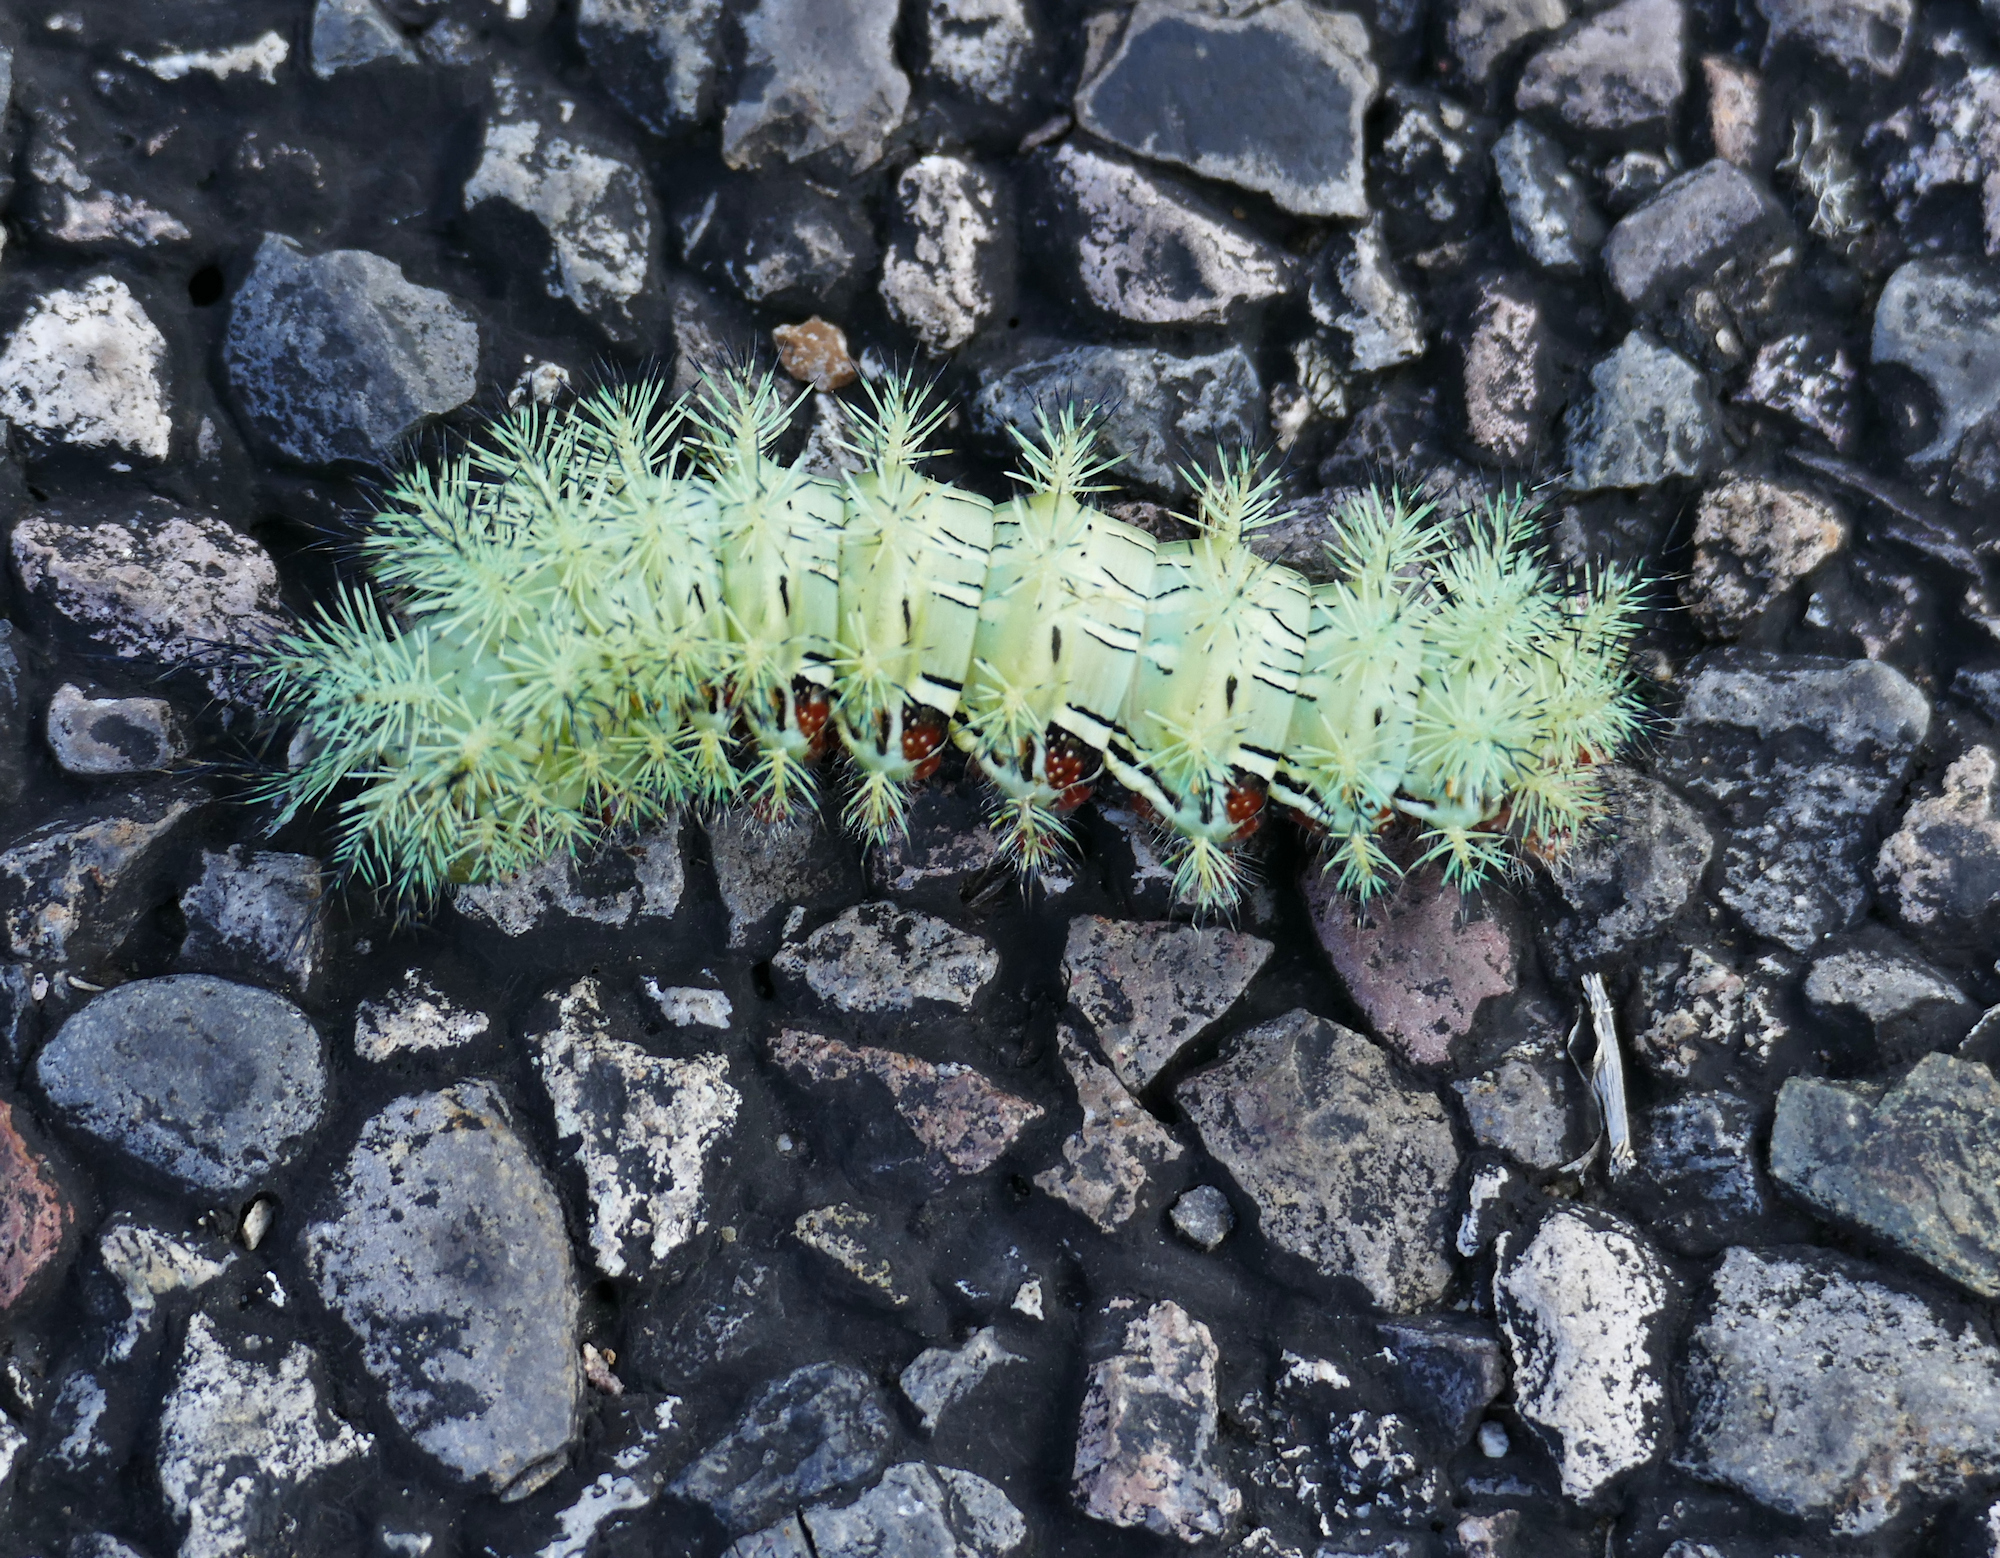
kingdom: Animalia
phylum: Arthropoda
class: Insecta
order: Lepidoptera
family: Saturniidae
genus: Automeris
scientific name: Automeris cecrops
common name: Cecrops eyed silkmoth
